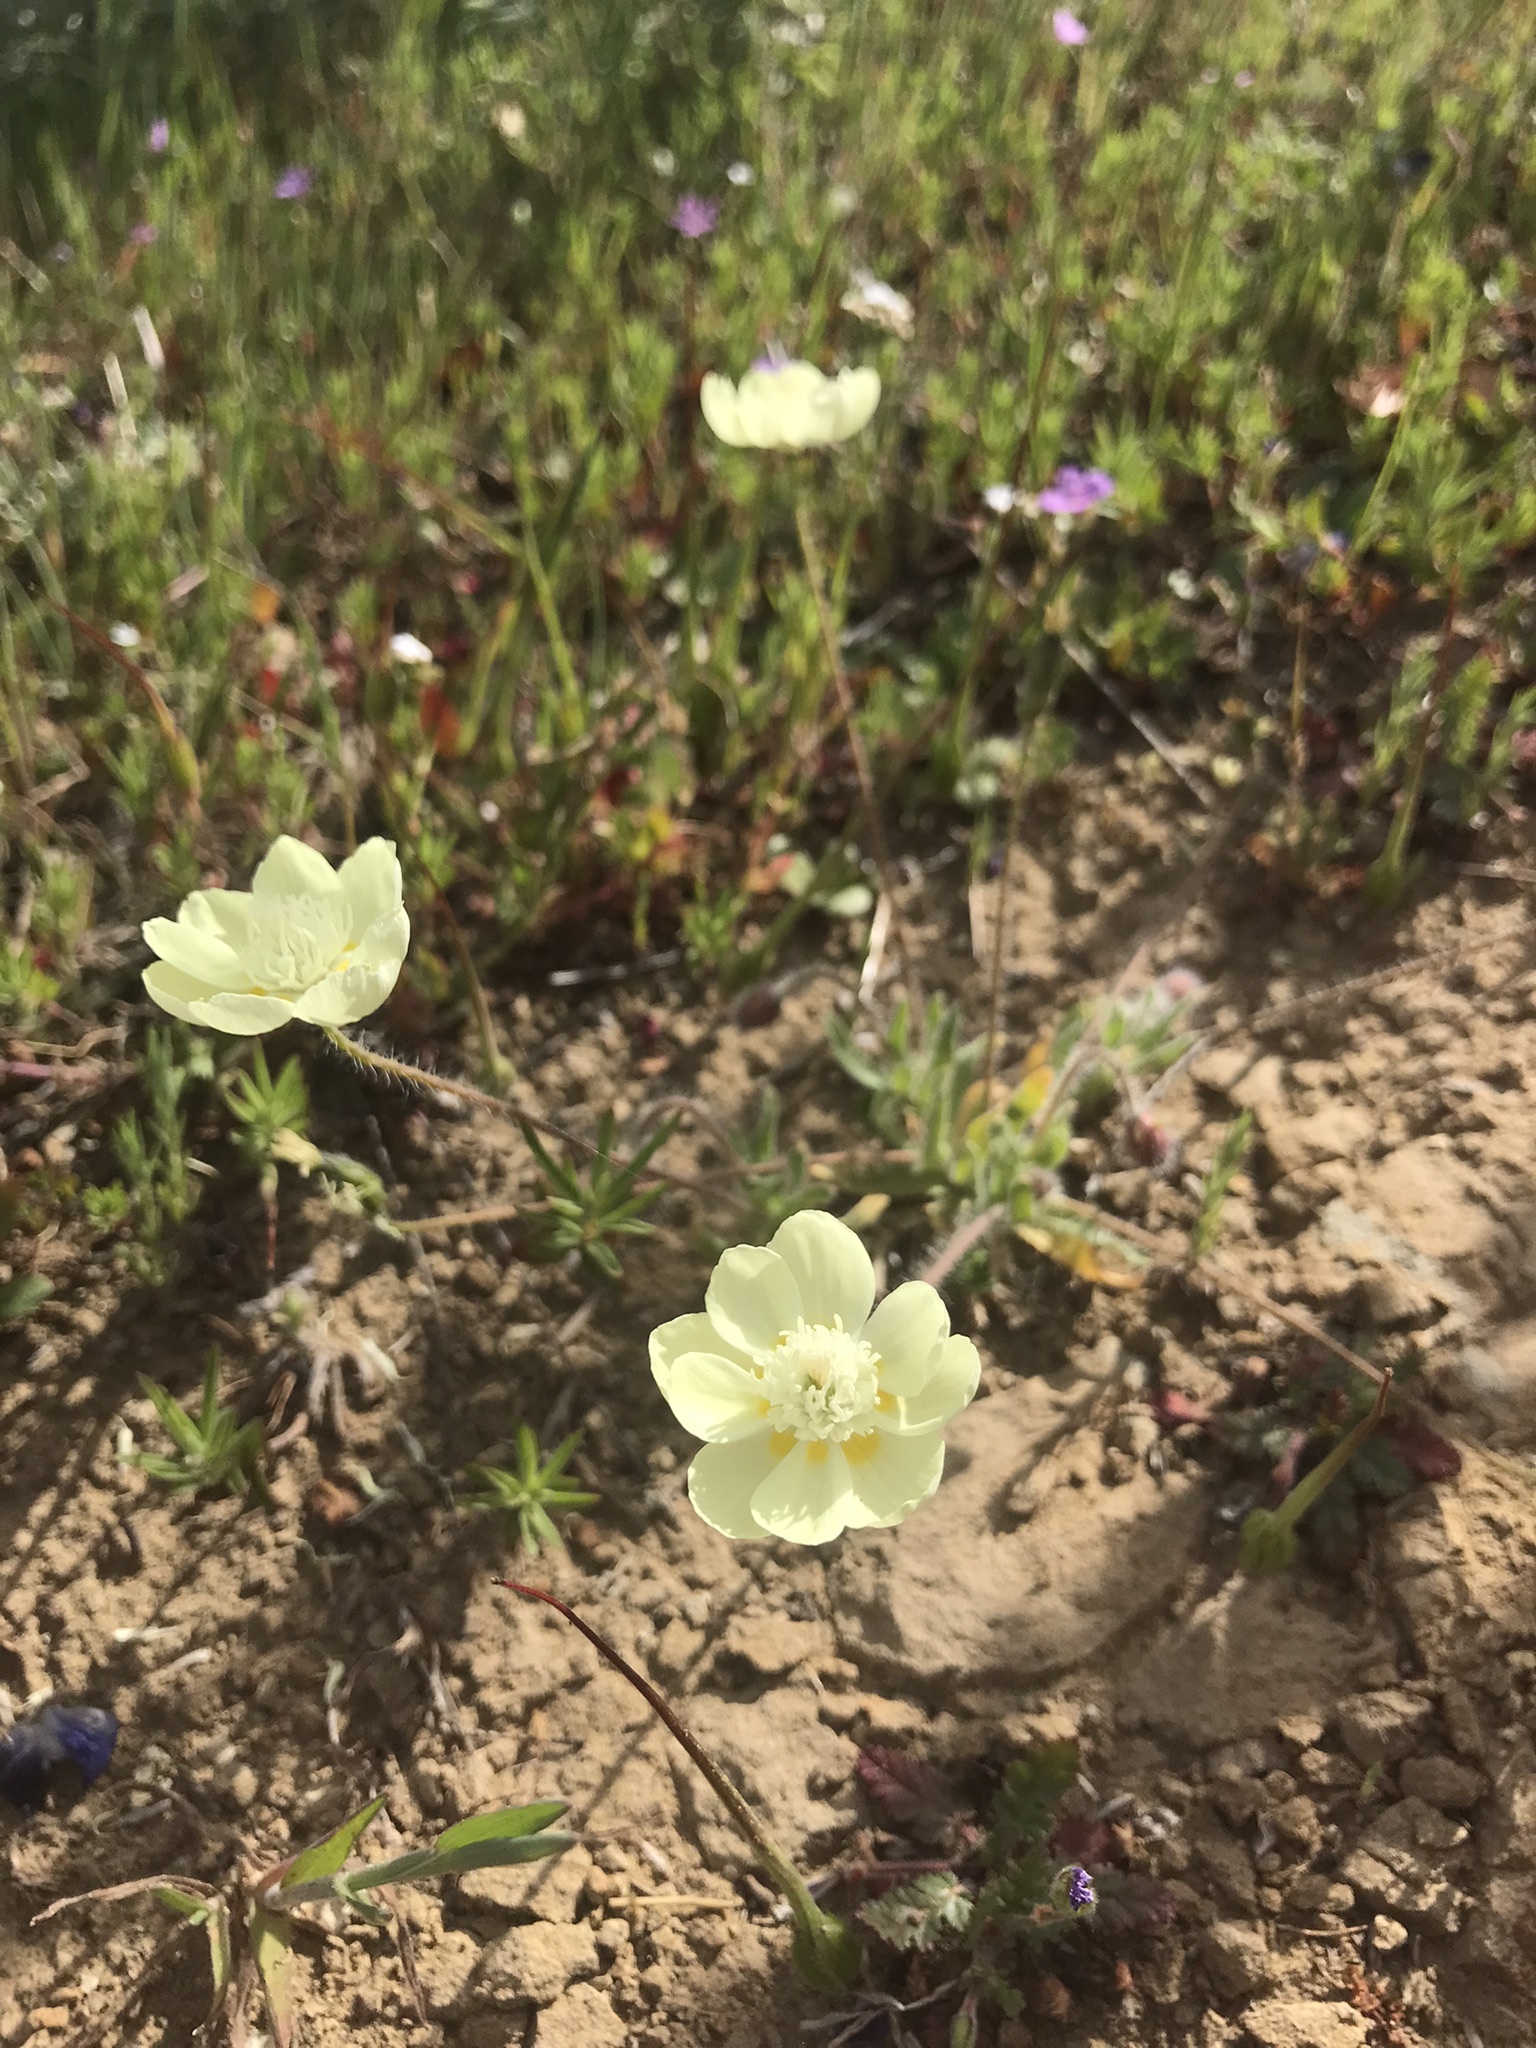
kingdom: Plantae
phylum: Tracheophyta
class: Magnoliopsida
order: Ranunculales
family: Papaveraceae
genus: Platystemon
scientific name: Platystemon californicus
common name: Cream-cups
